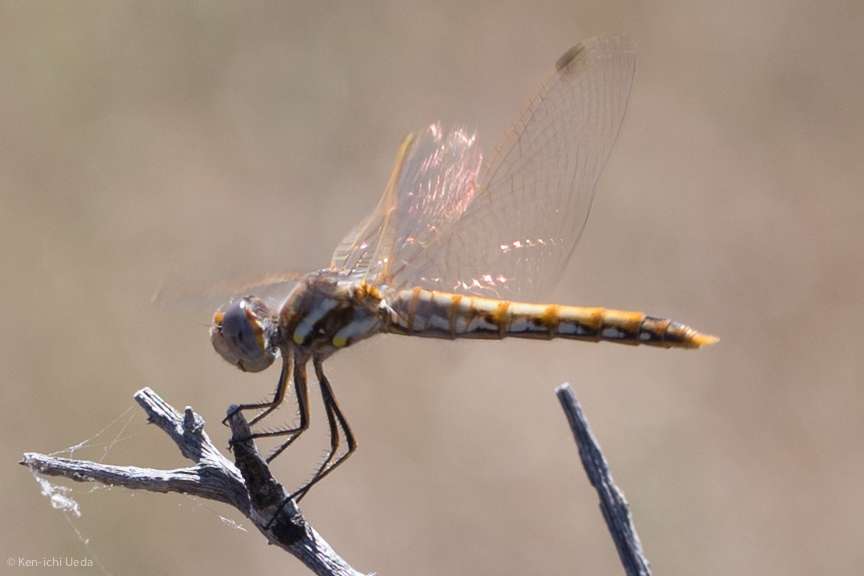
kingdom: Animalia
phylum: Arthropoda
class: Insecta
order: Odonata
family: Libellulidae
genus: Sympetrum
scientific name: Sympetrum corruptum
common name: Variegated meadowhawk
